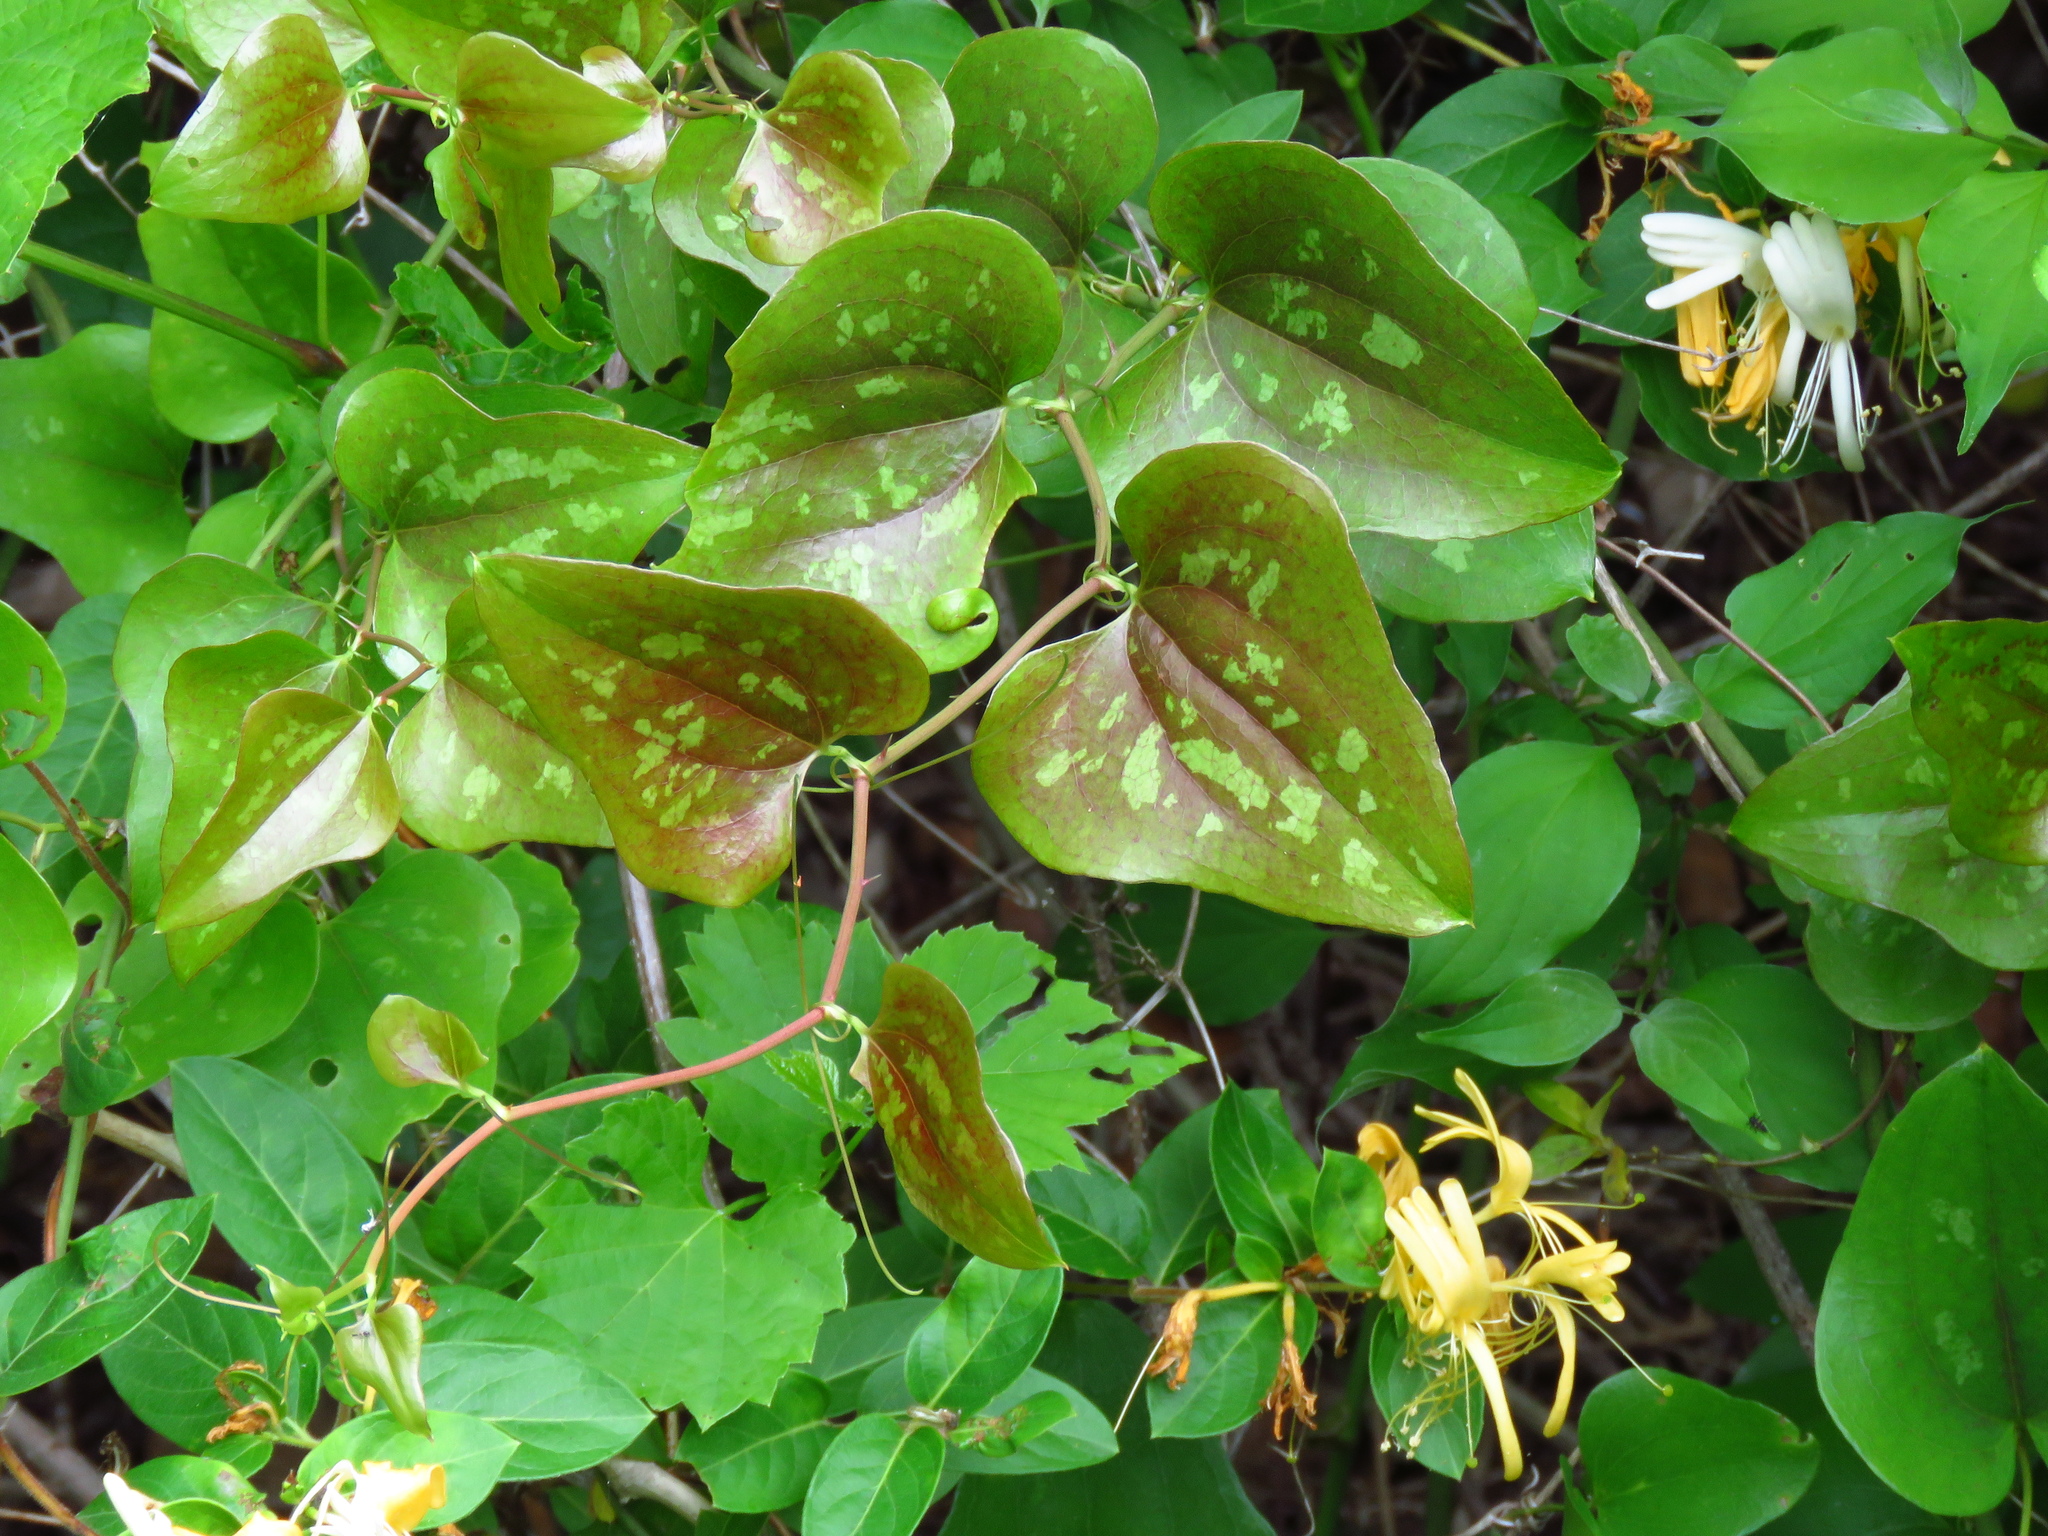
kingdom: Plantae
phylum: Tracheophyta
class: Liliopsida
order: Liliales
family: Smilacaceae
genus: Smilax
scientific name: Smilax bona-nox
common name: Catbrier
